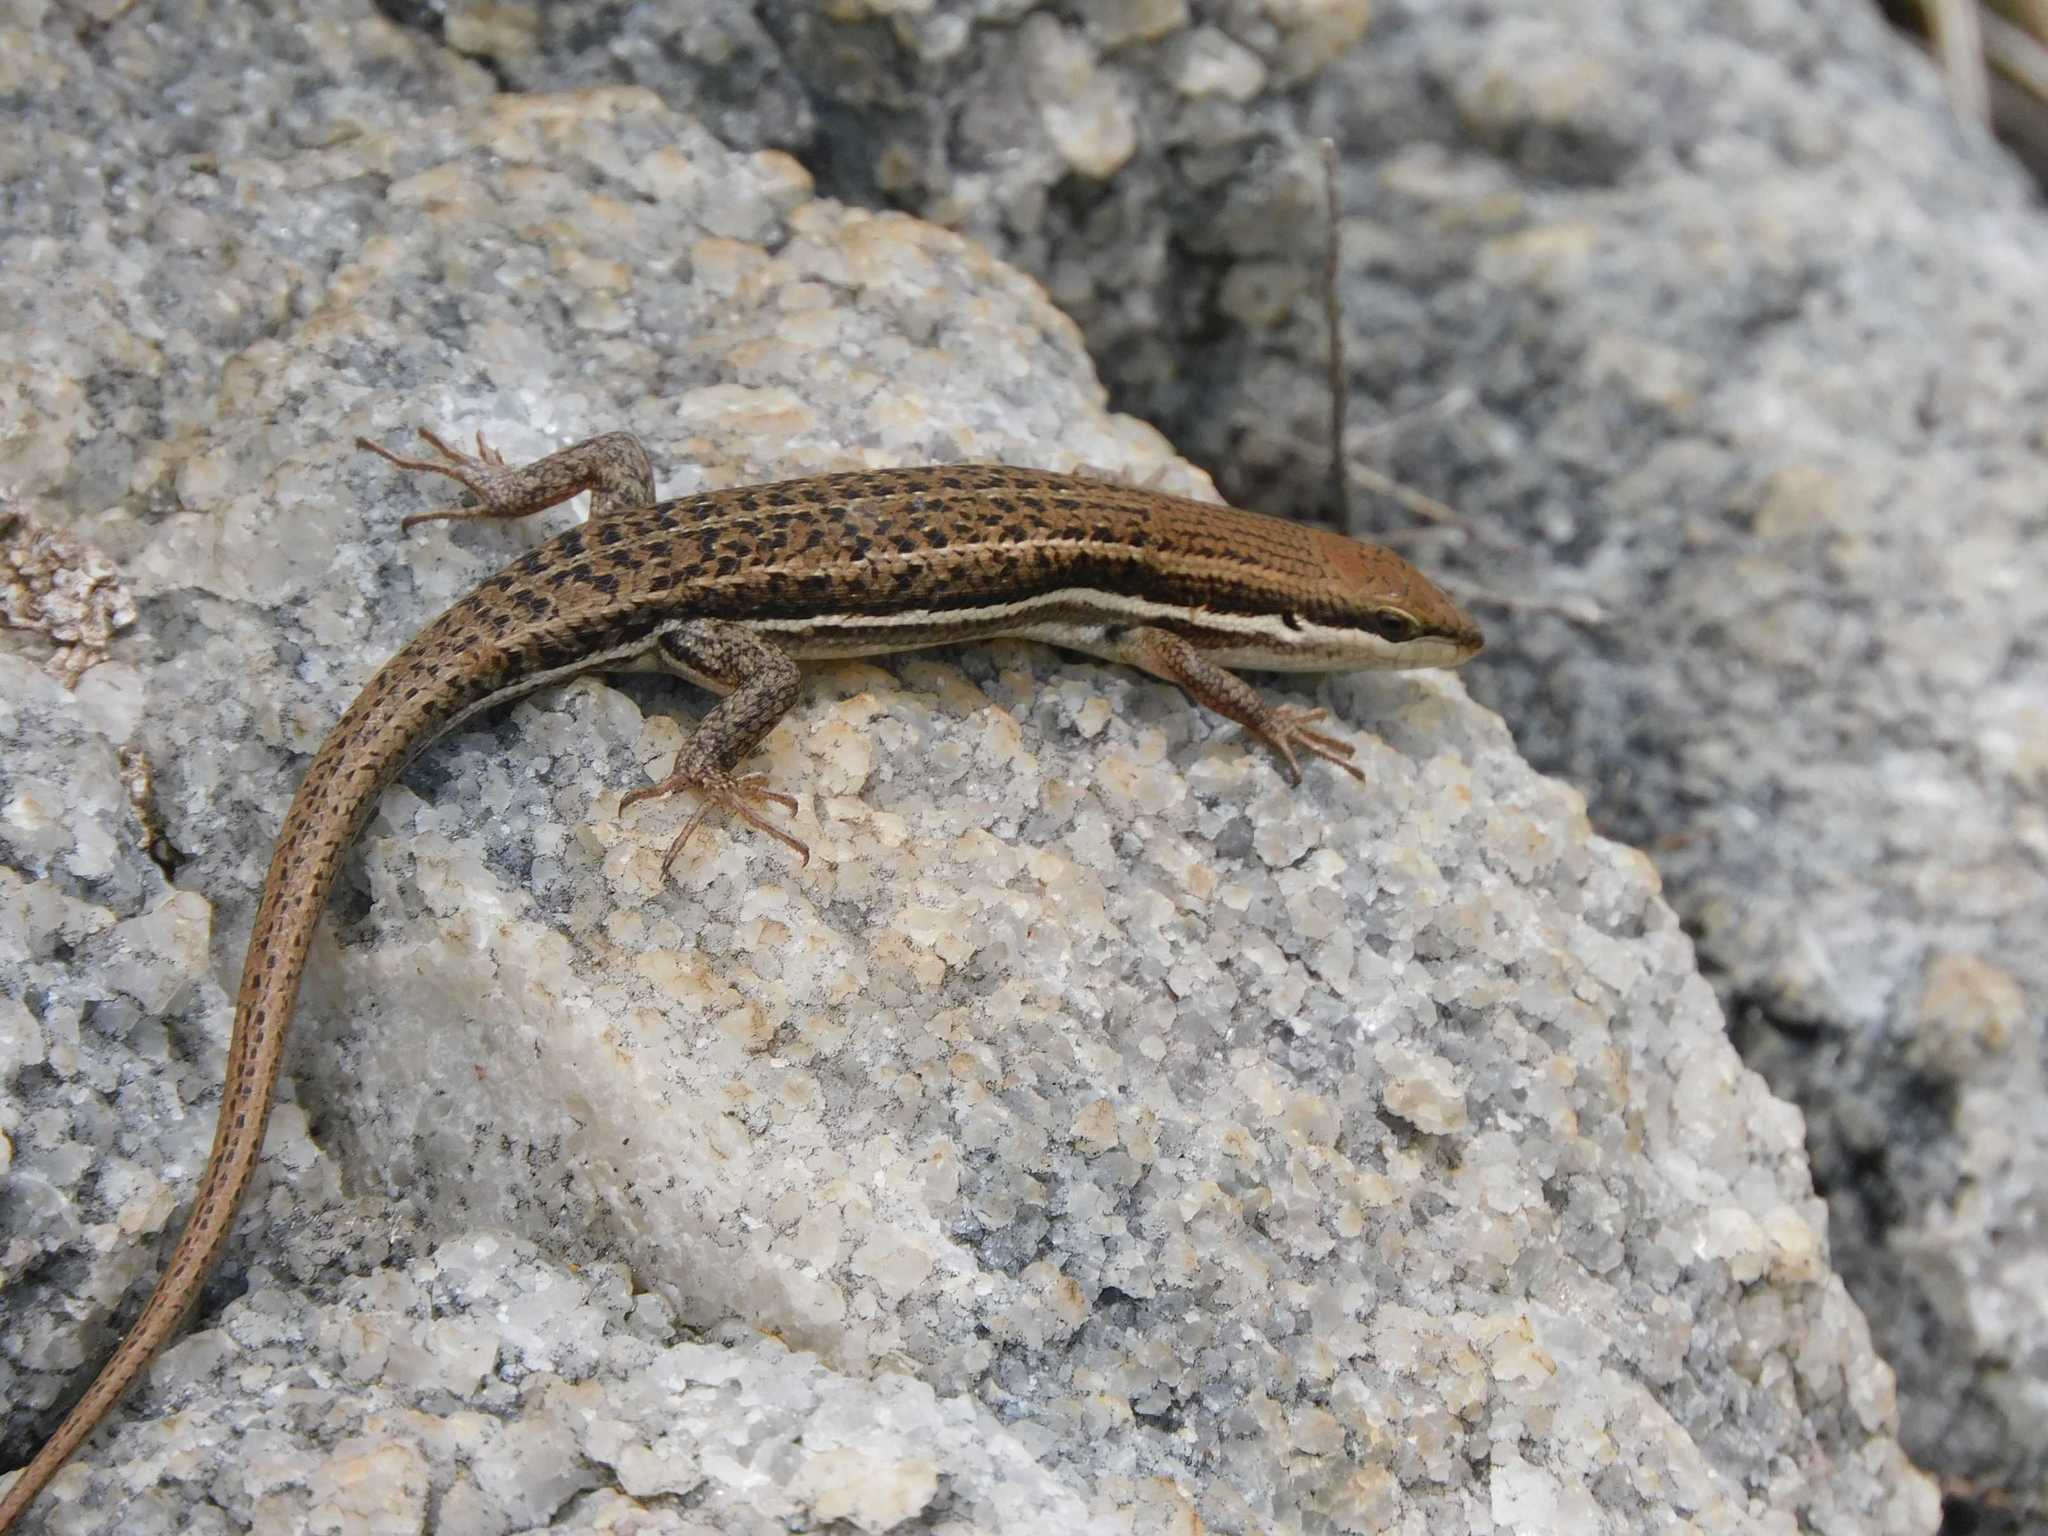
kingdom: Animalia
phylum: Chordata
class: Squamata
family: Scincidae
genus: Trachylepis
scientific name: Trachylepis varia
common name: Eastern variable skink
